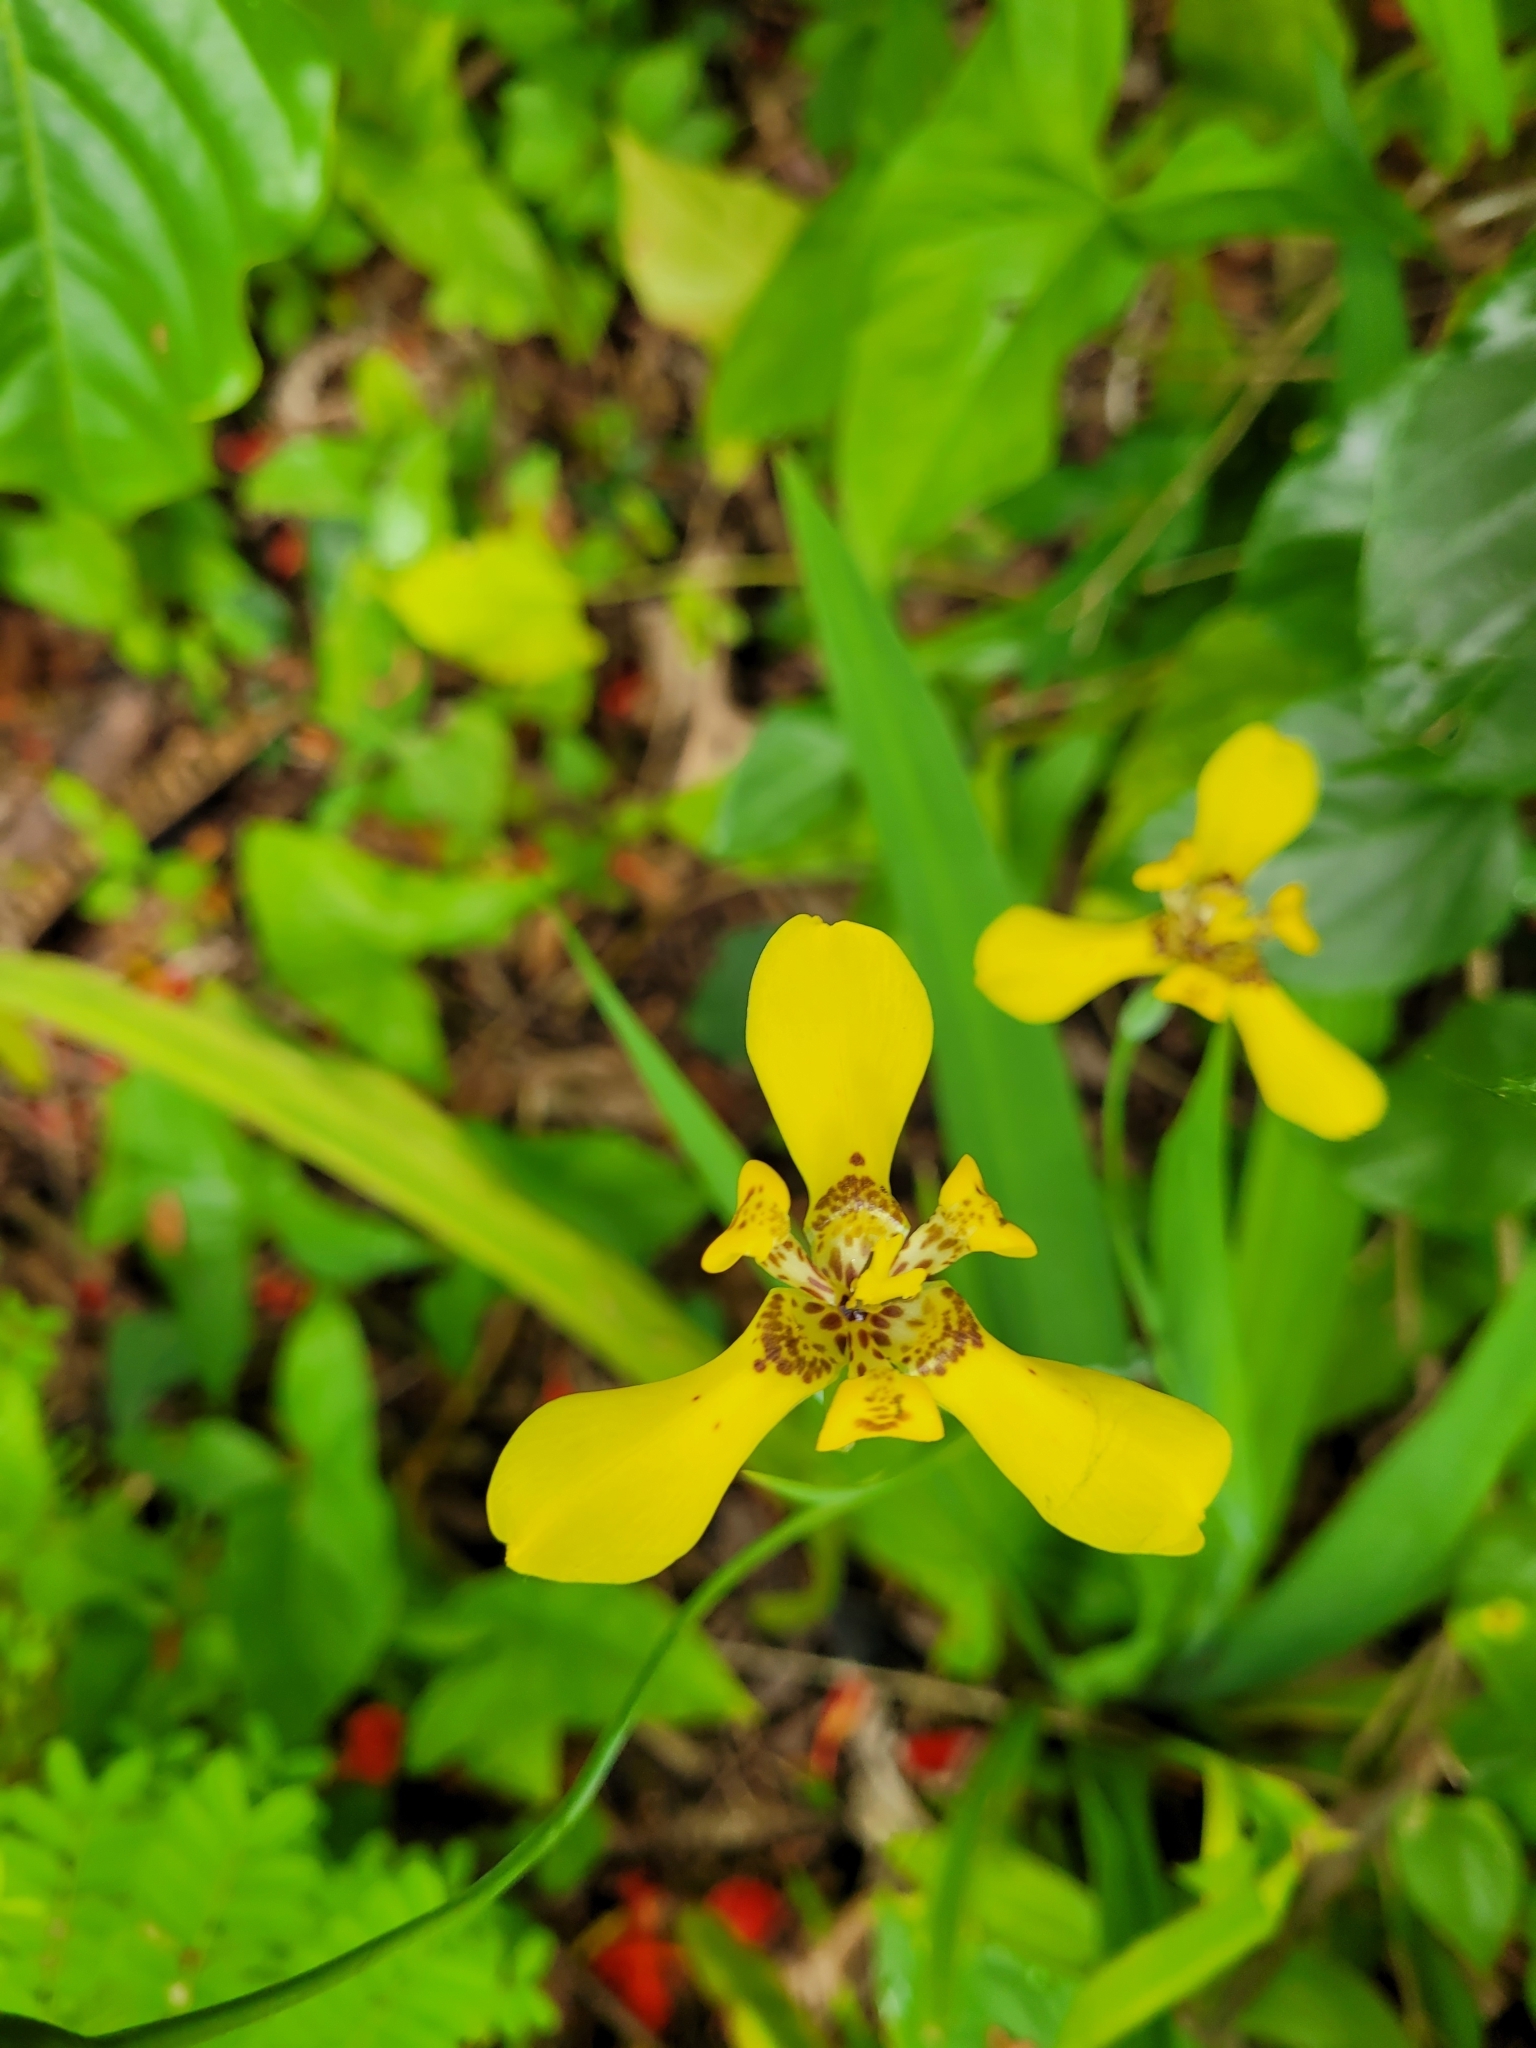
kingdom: Plantae
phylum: Tracheophyta
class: Liliopsida
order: Asparagales
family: Iridaceae
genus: Trimezia
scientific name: Trimezia steyermarkii
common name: Trimezia
